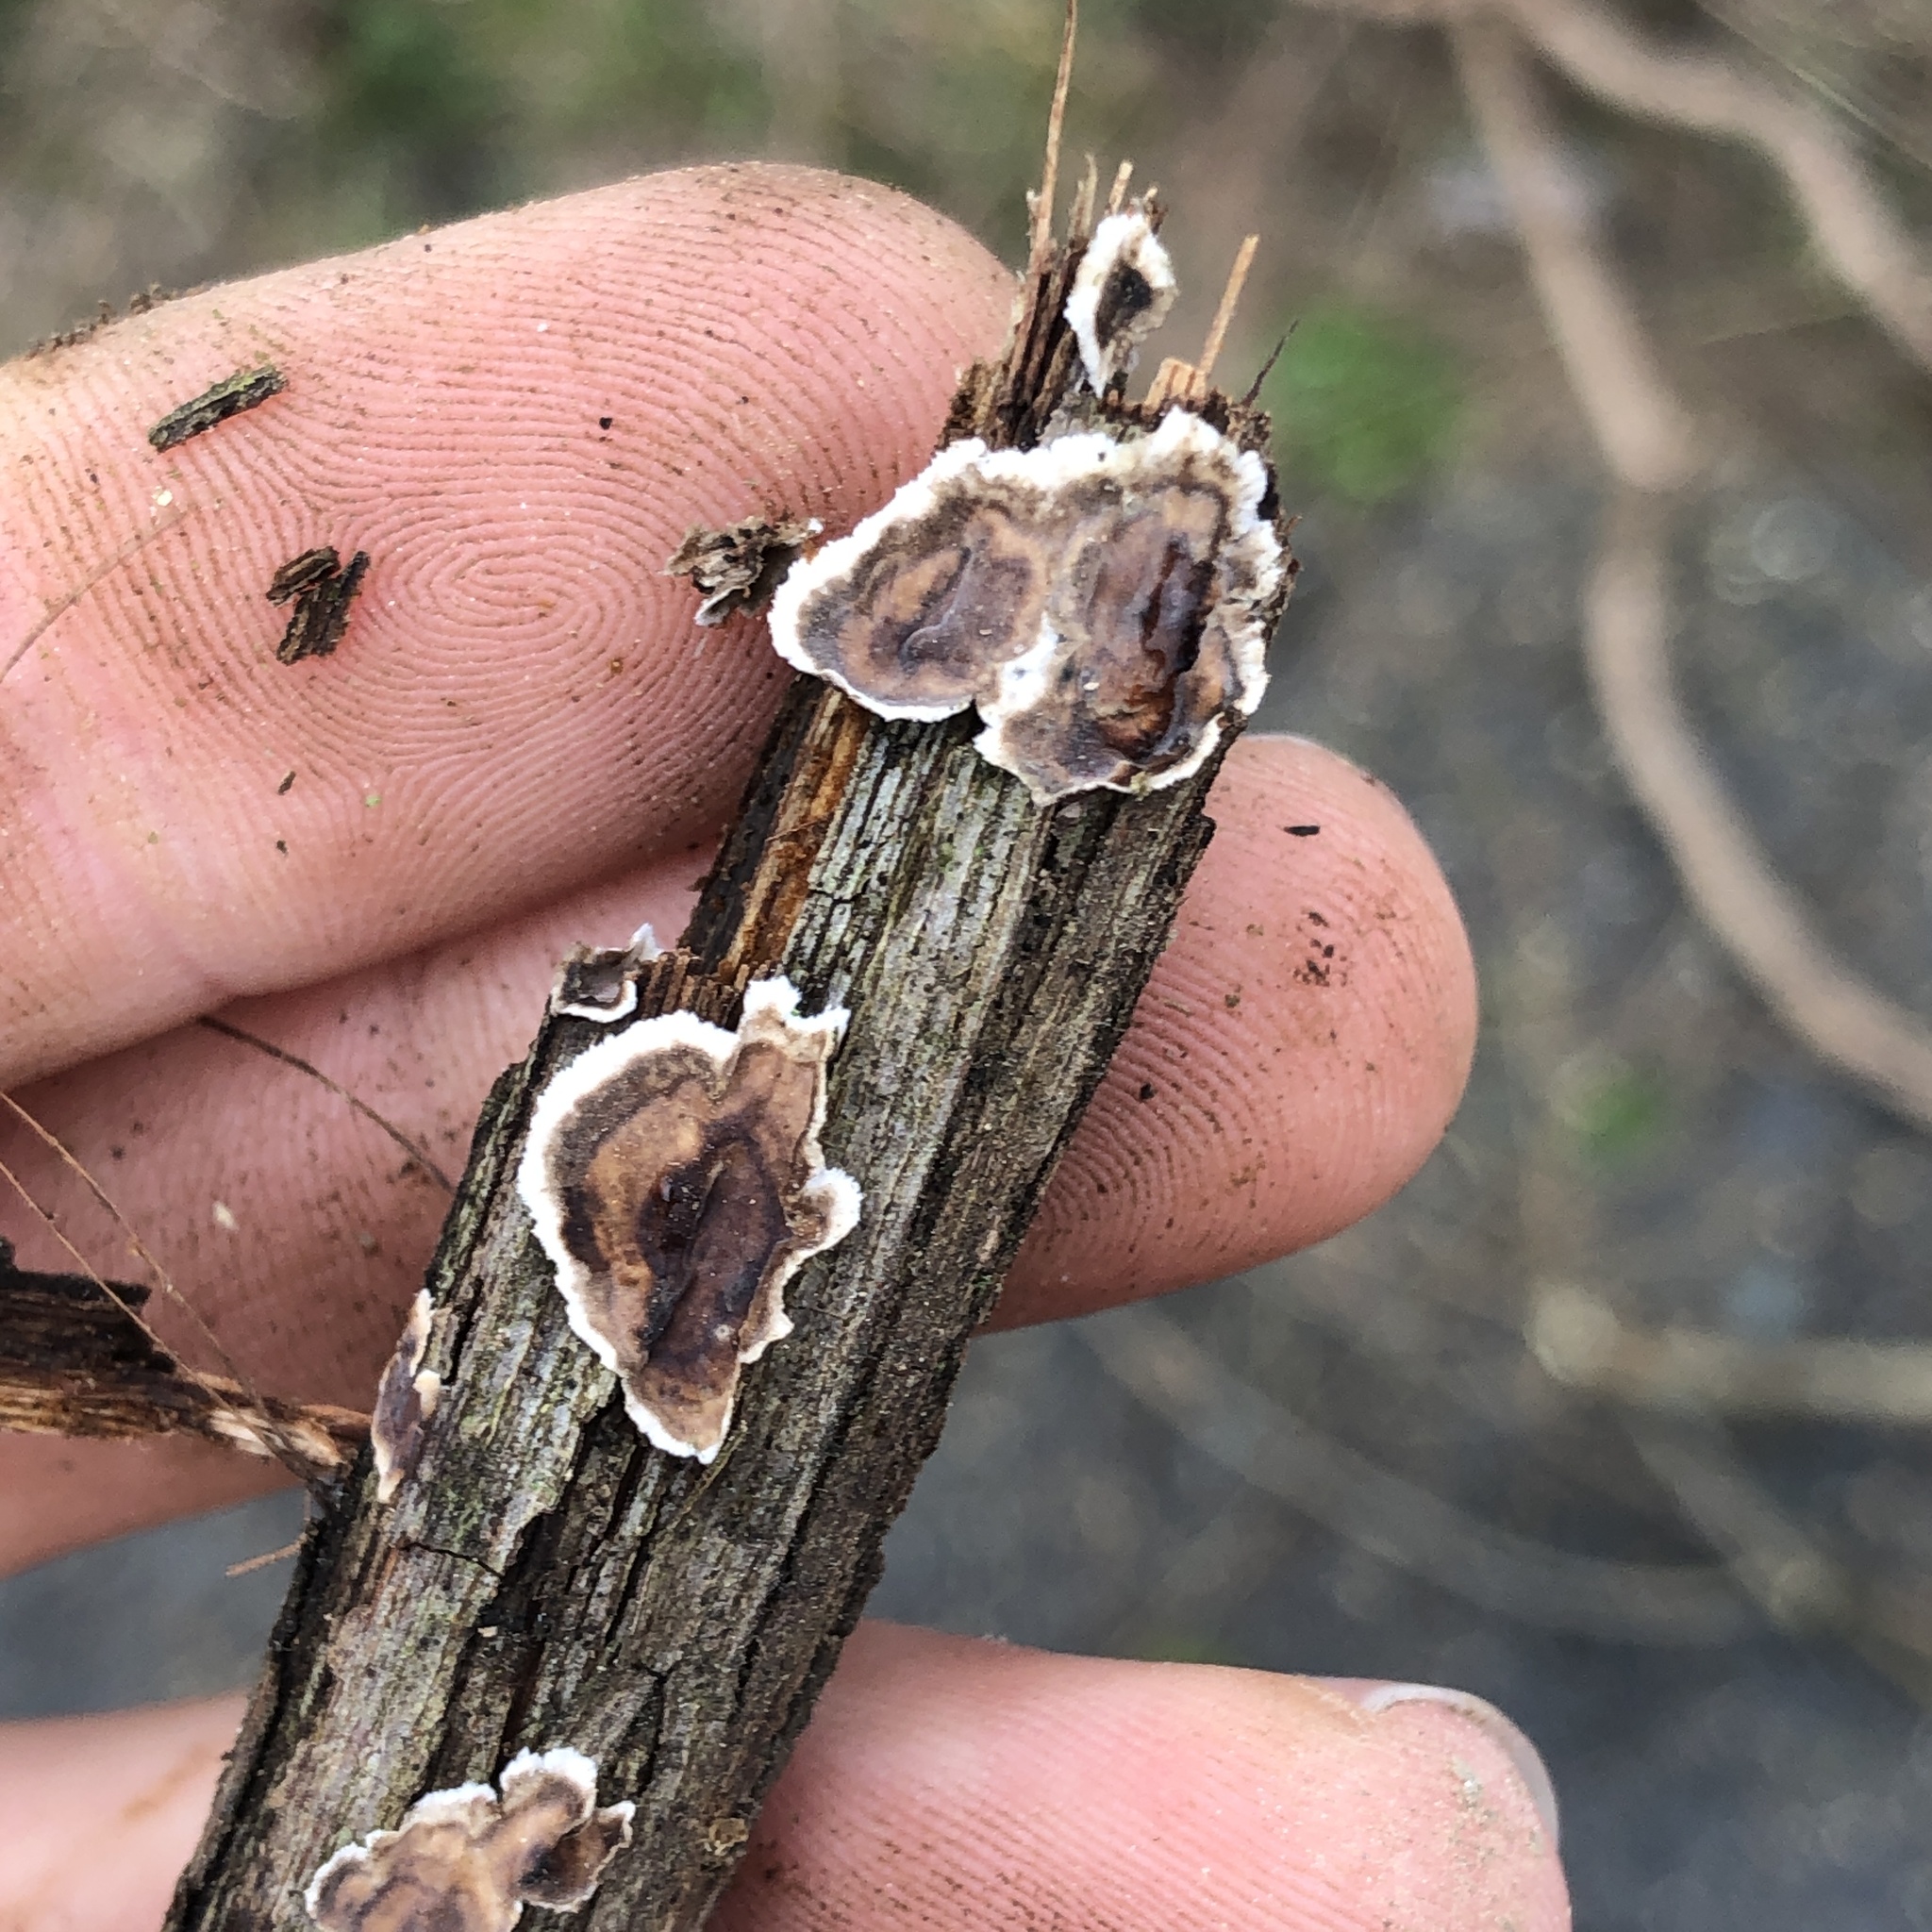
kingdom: Fungi
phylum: Basidiomycota
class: Agaricomycetes
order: Russulales
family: Peniophoraceae
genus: Peniophora
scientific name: Peniophora albobadia
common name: Giraffe spots
